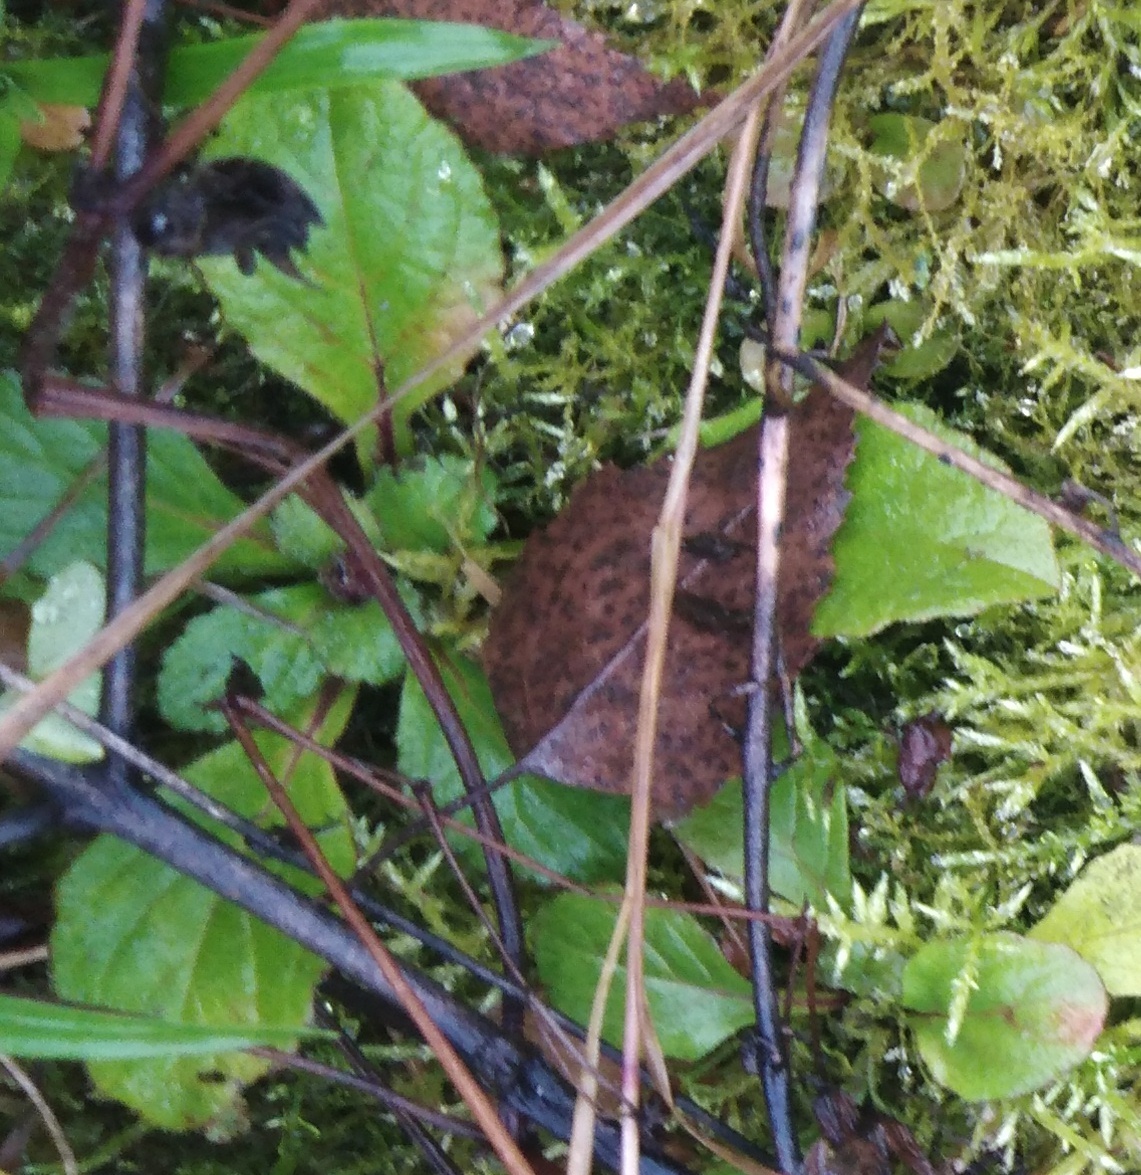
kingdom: Plantae
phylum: Tracheophyta
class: Magnoliopsida
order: Lamiales
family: Lamiaceae
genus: Ajuga
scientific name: Ajuga reptans
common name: Bugle
